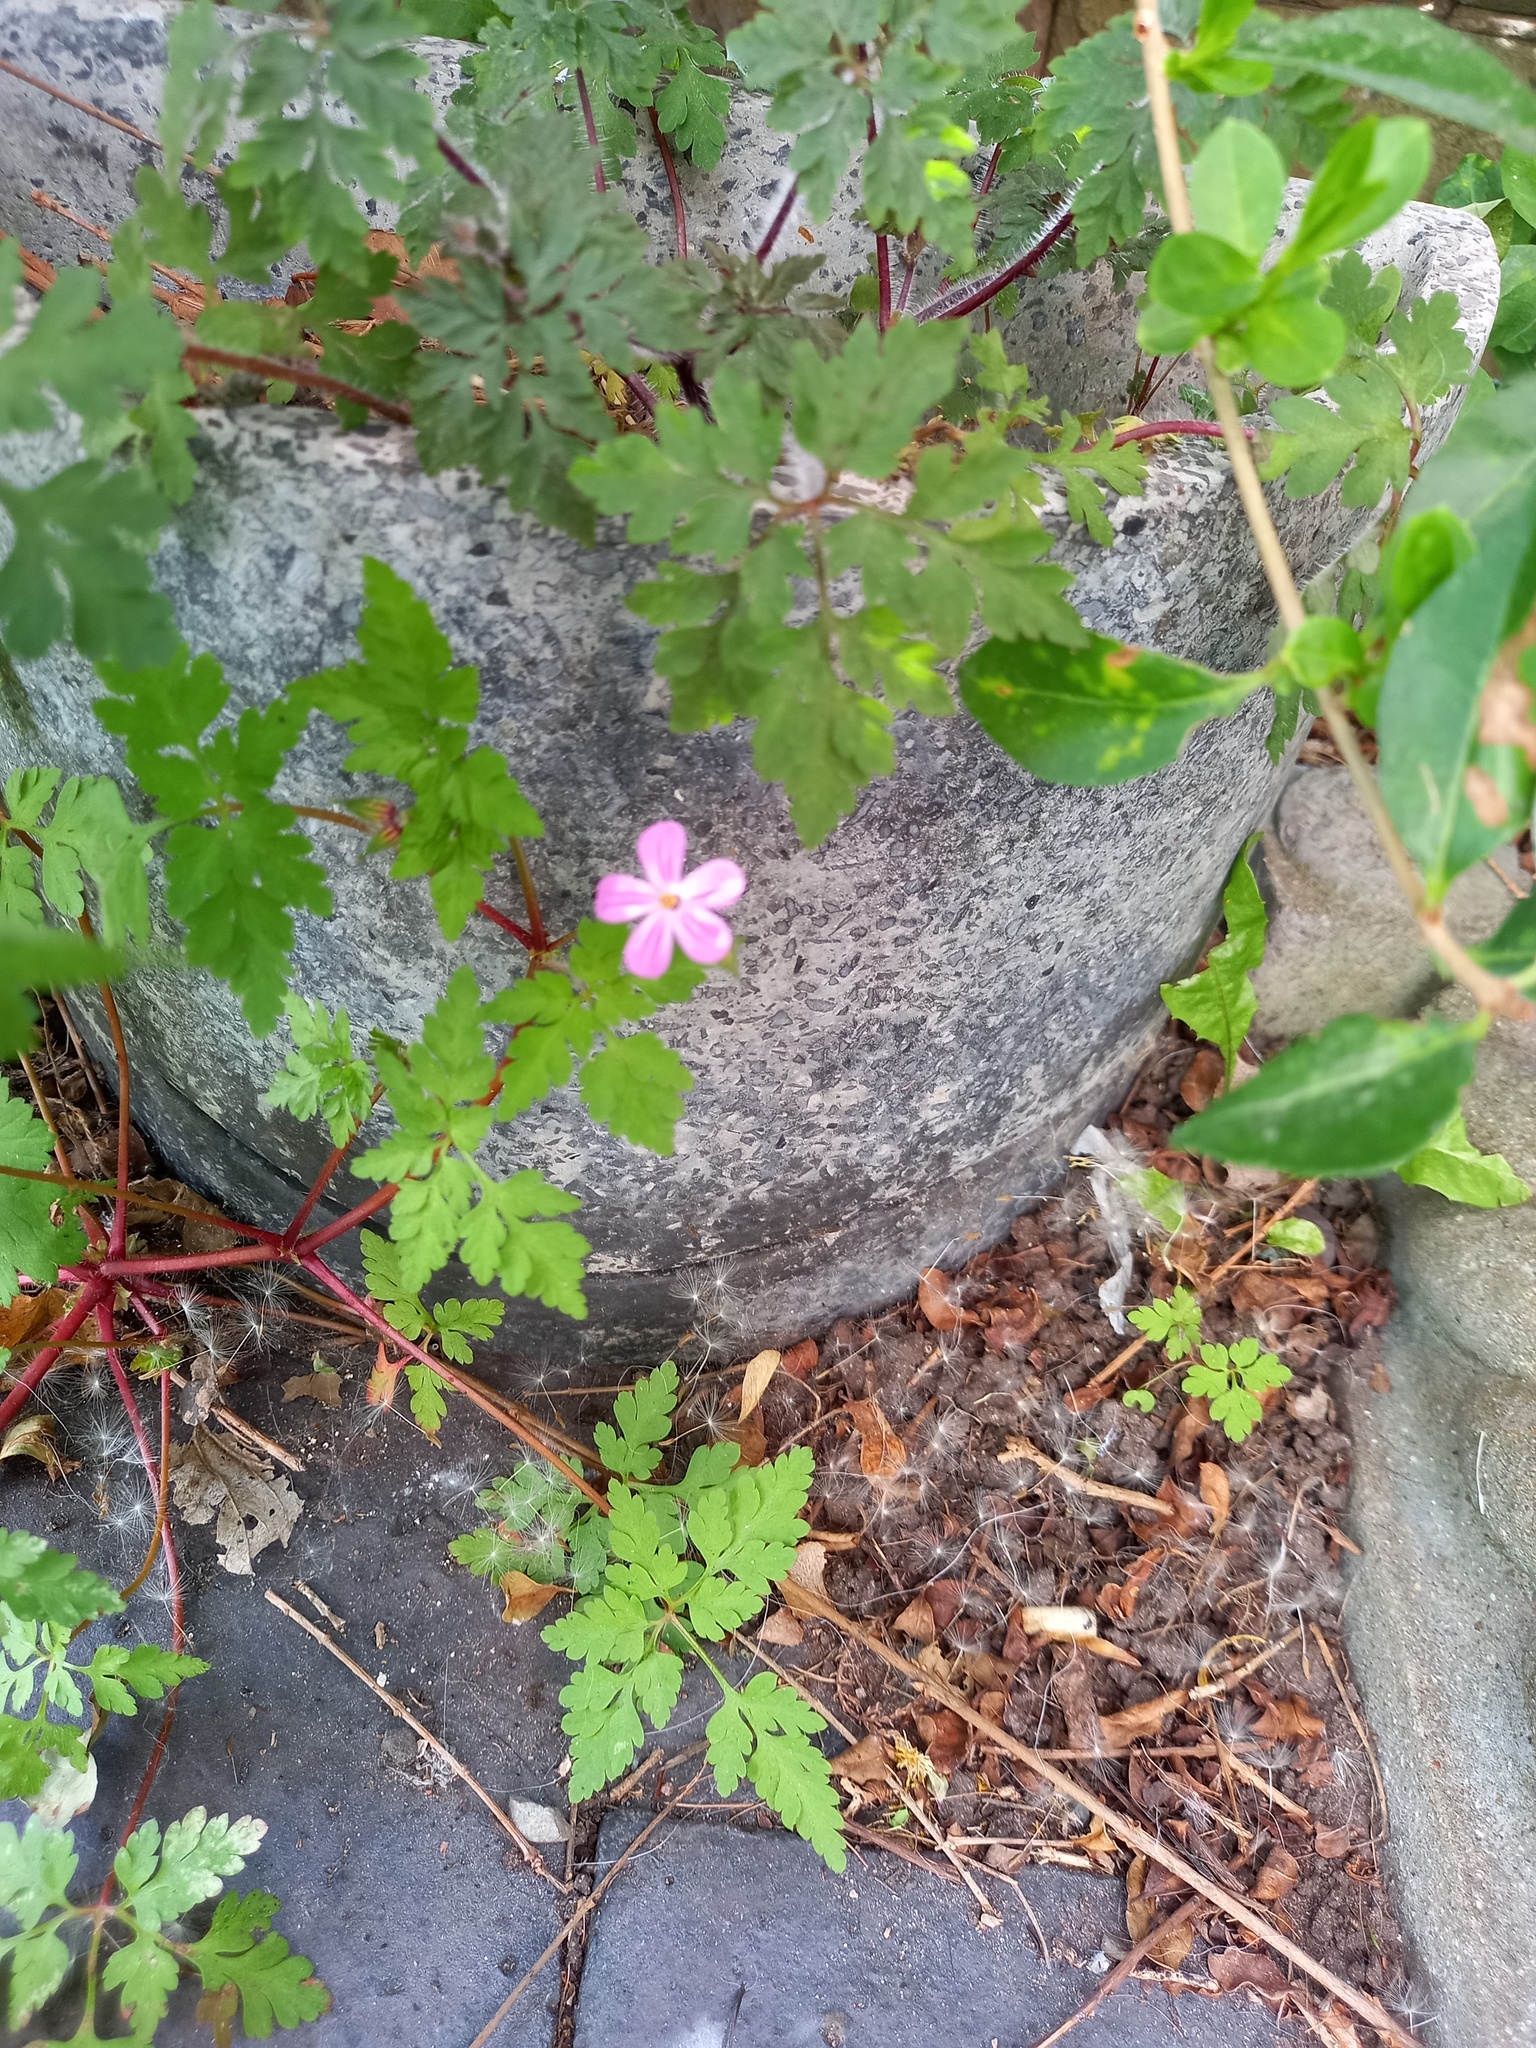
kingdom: Plantae
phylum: Tracheophyta
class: Magnoliopsida
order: Geraniales
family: Geraniaceae
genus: Geranium
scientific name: Geranium robertianum
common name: Herb-robert
